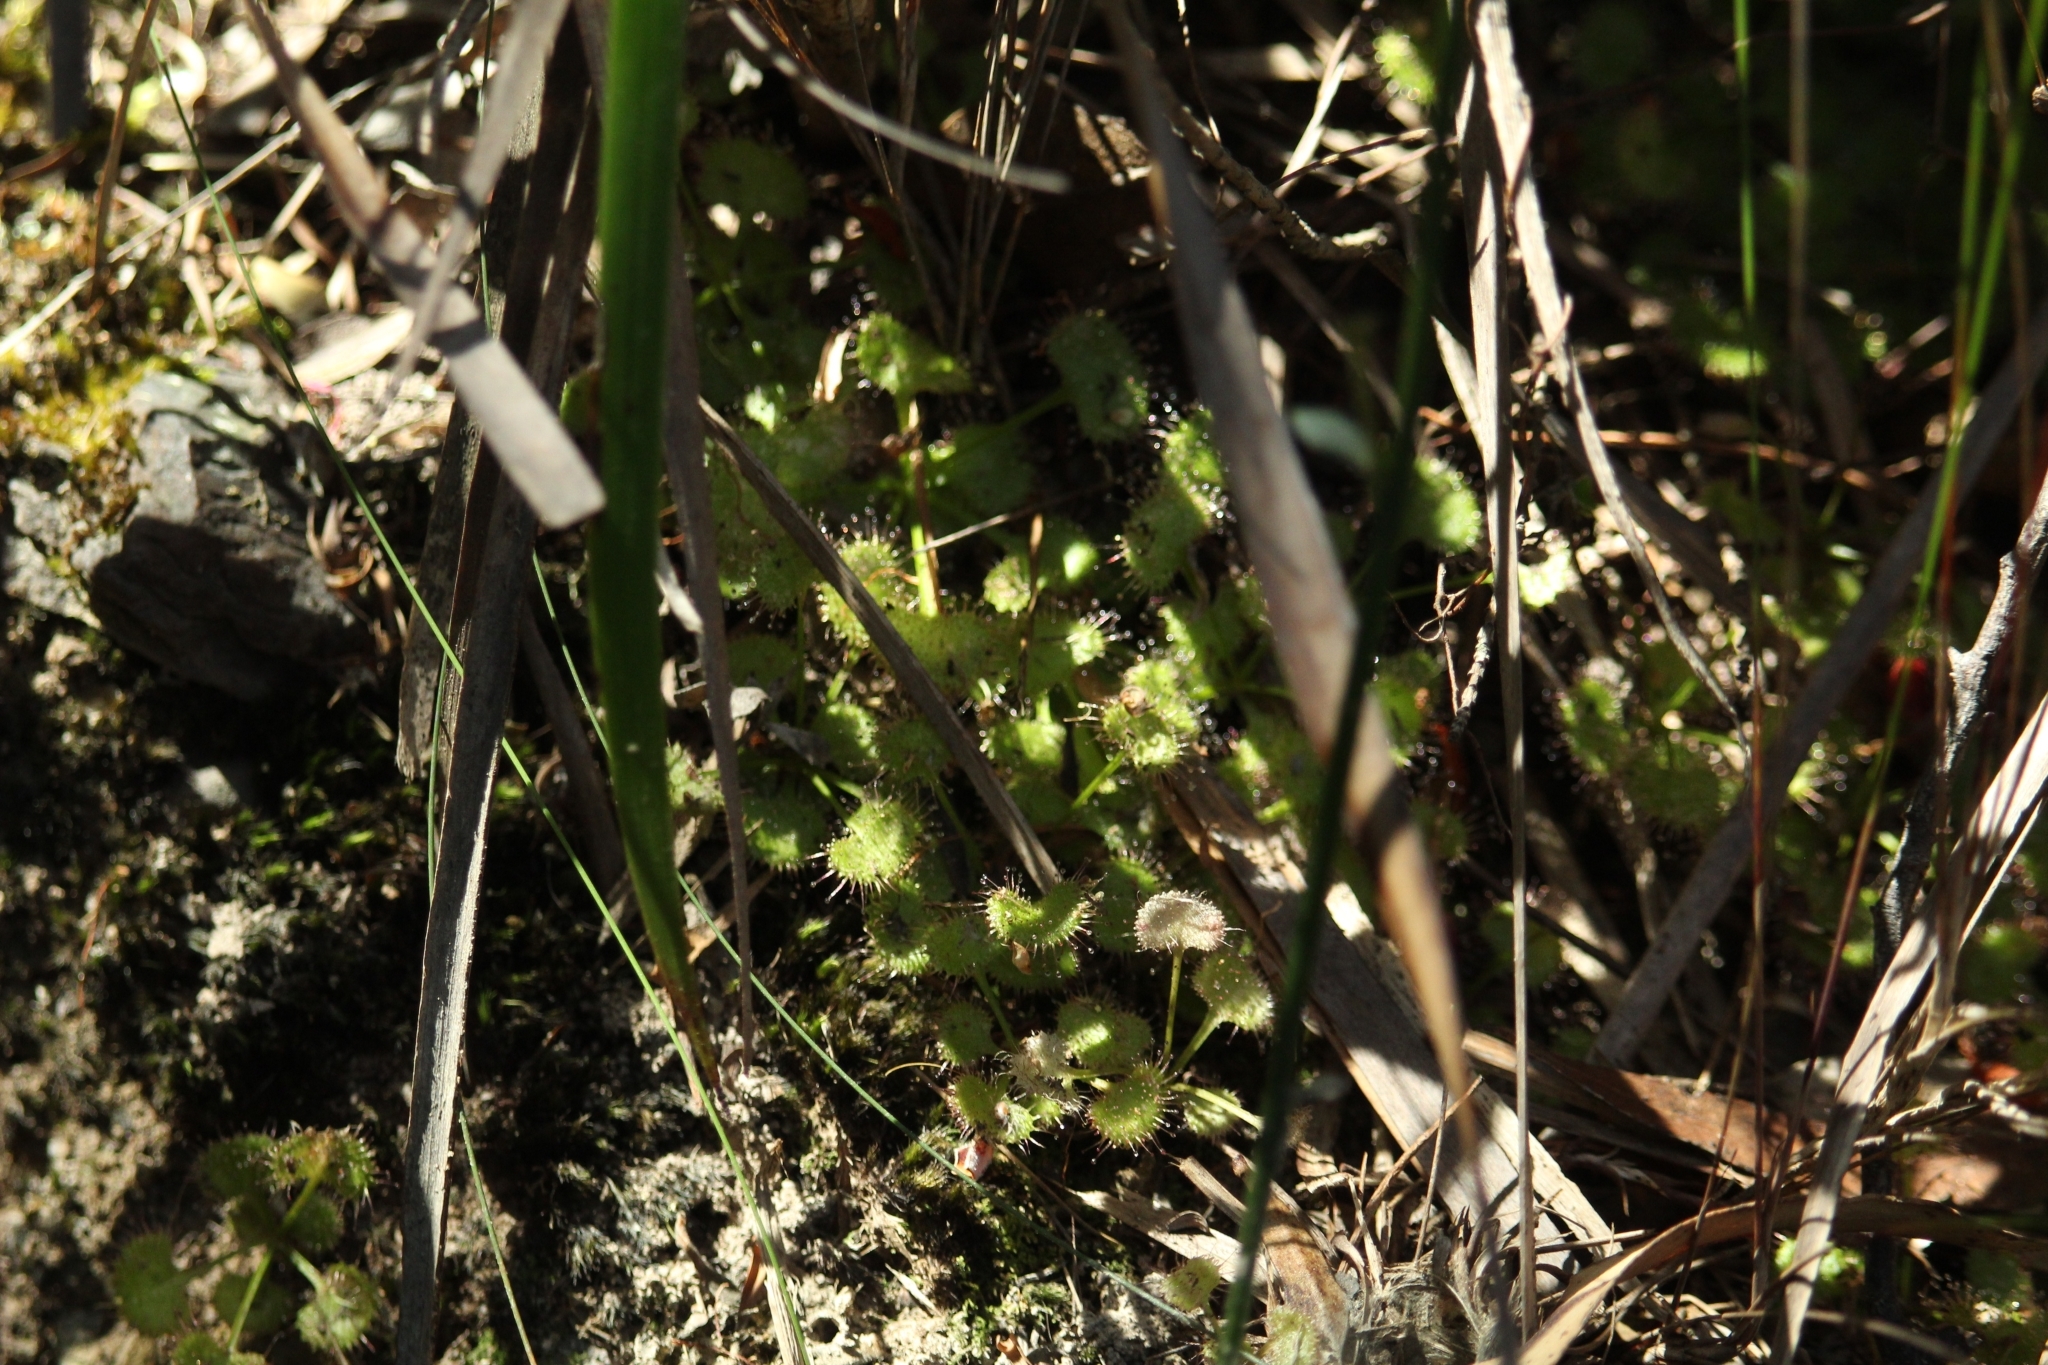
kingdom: Plantae
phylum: Tracheophyta
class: Magnoliopsida
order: Caryophyllales
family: Droseraceae
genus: Drosera
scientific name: Drosera monticola
